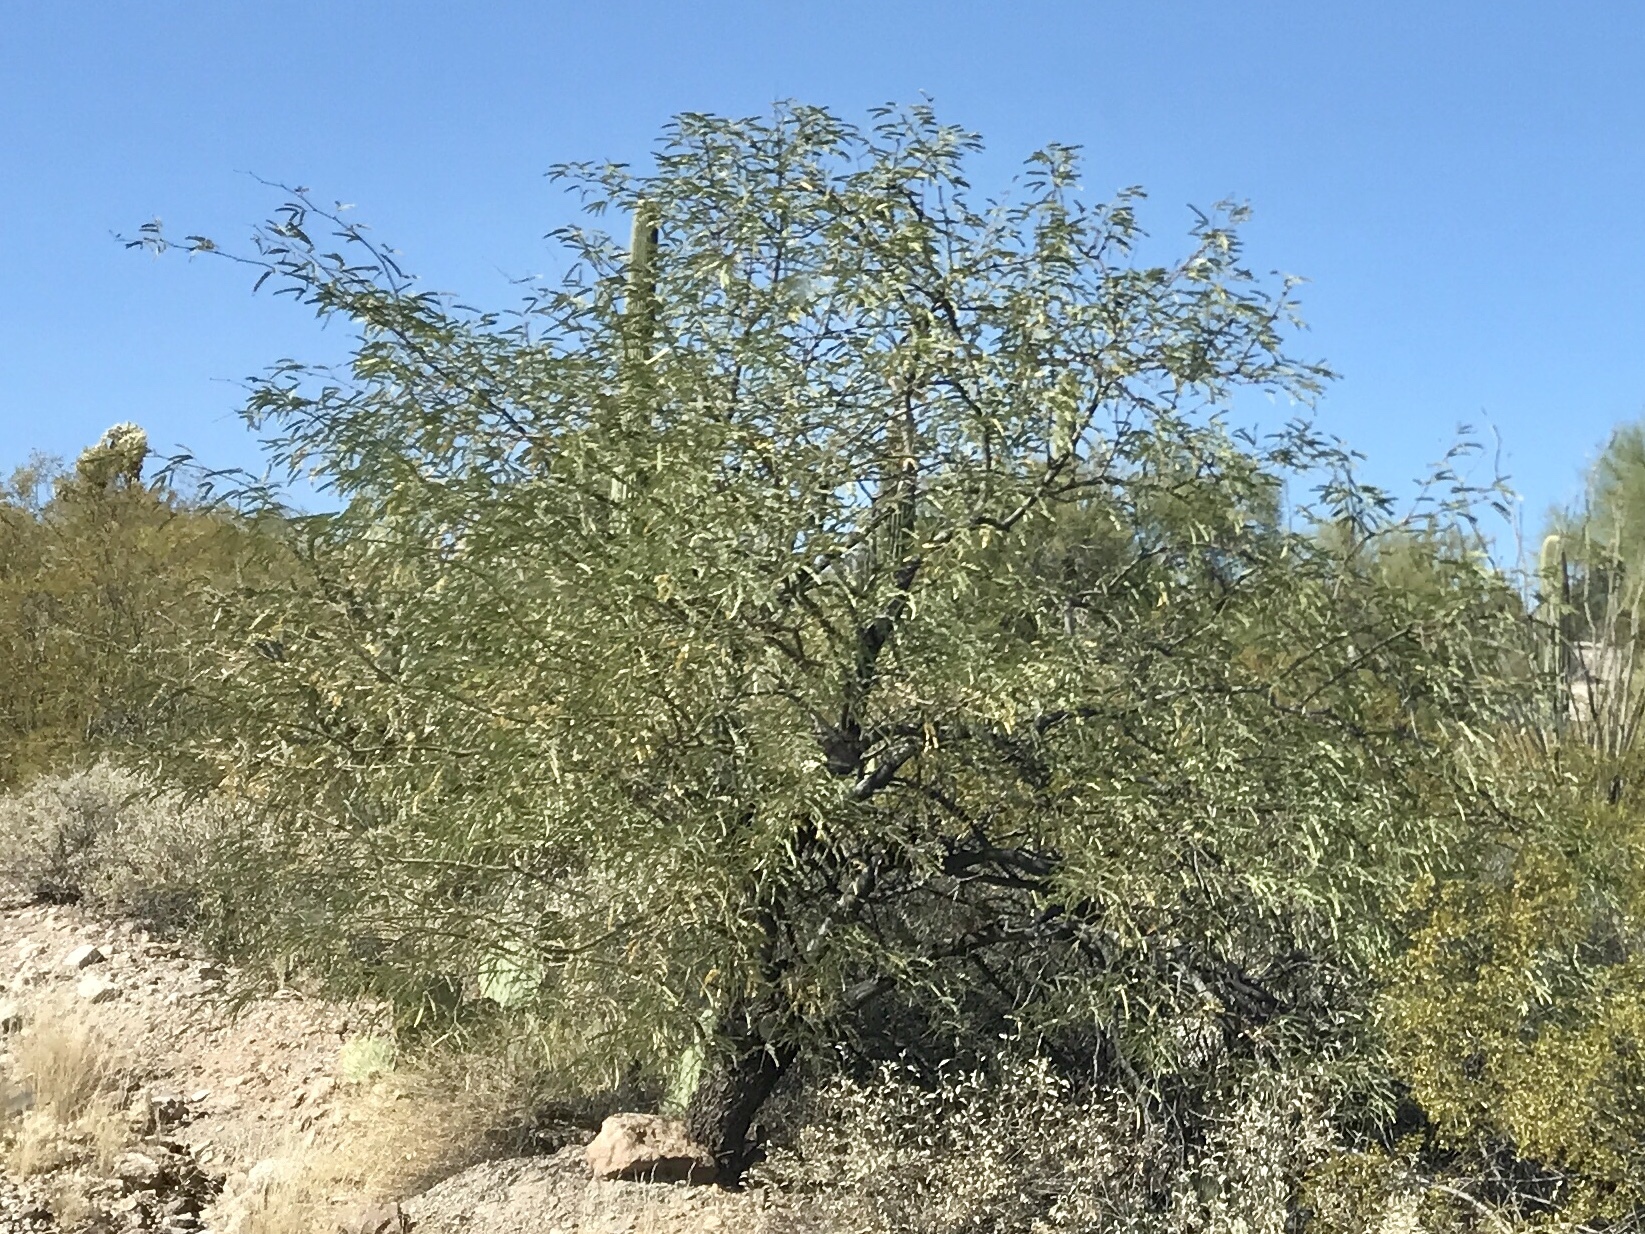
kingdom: Plantae
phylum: Tracheophyta
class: Magnoliopsida
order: Fabales
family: Fabaceae
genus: Olneya
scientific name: Olneya tesota
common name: Desert ironwood
